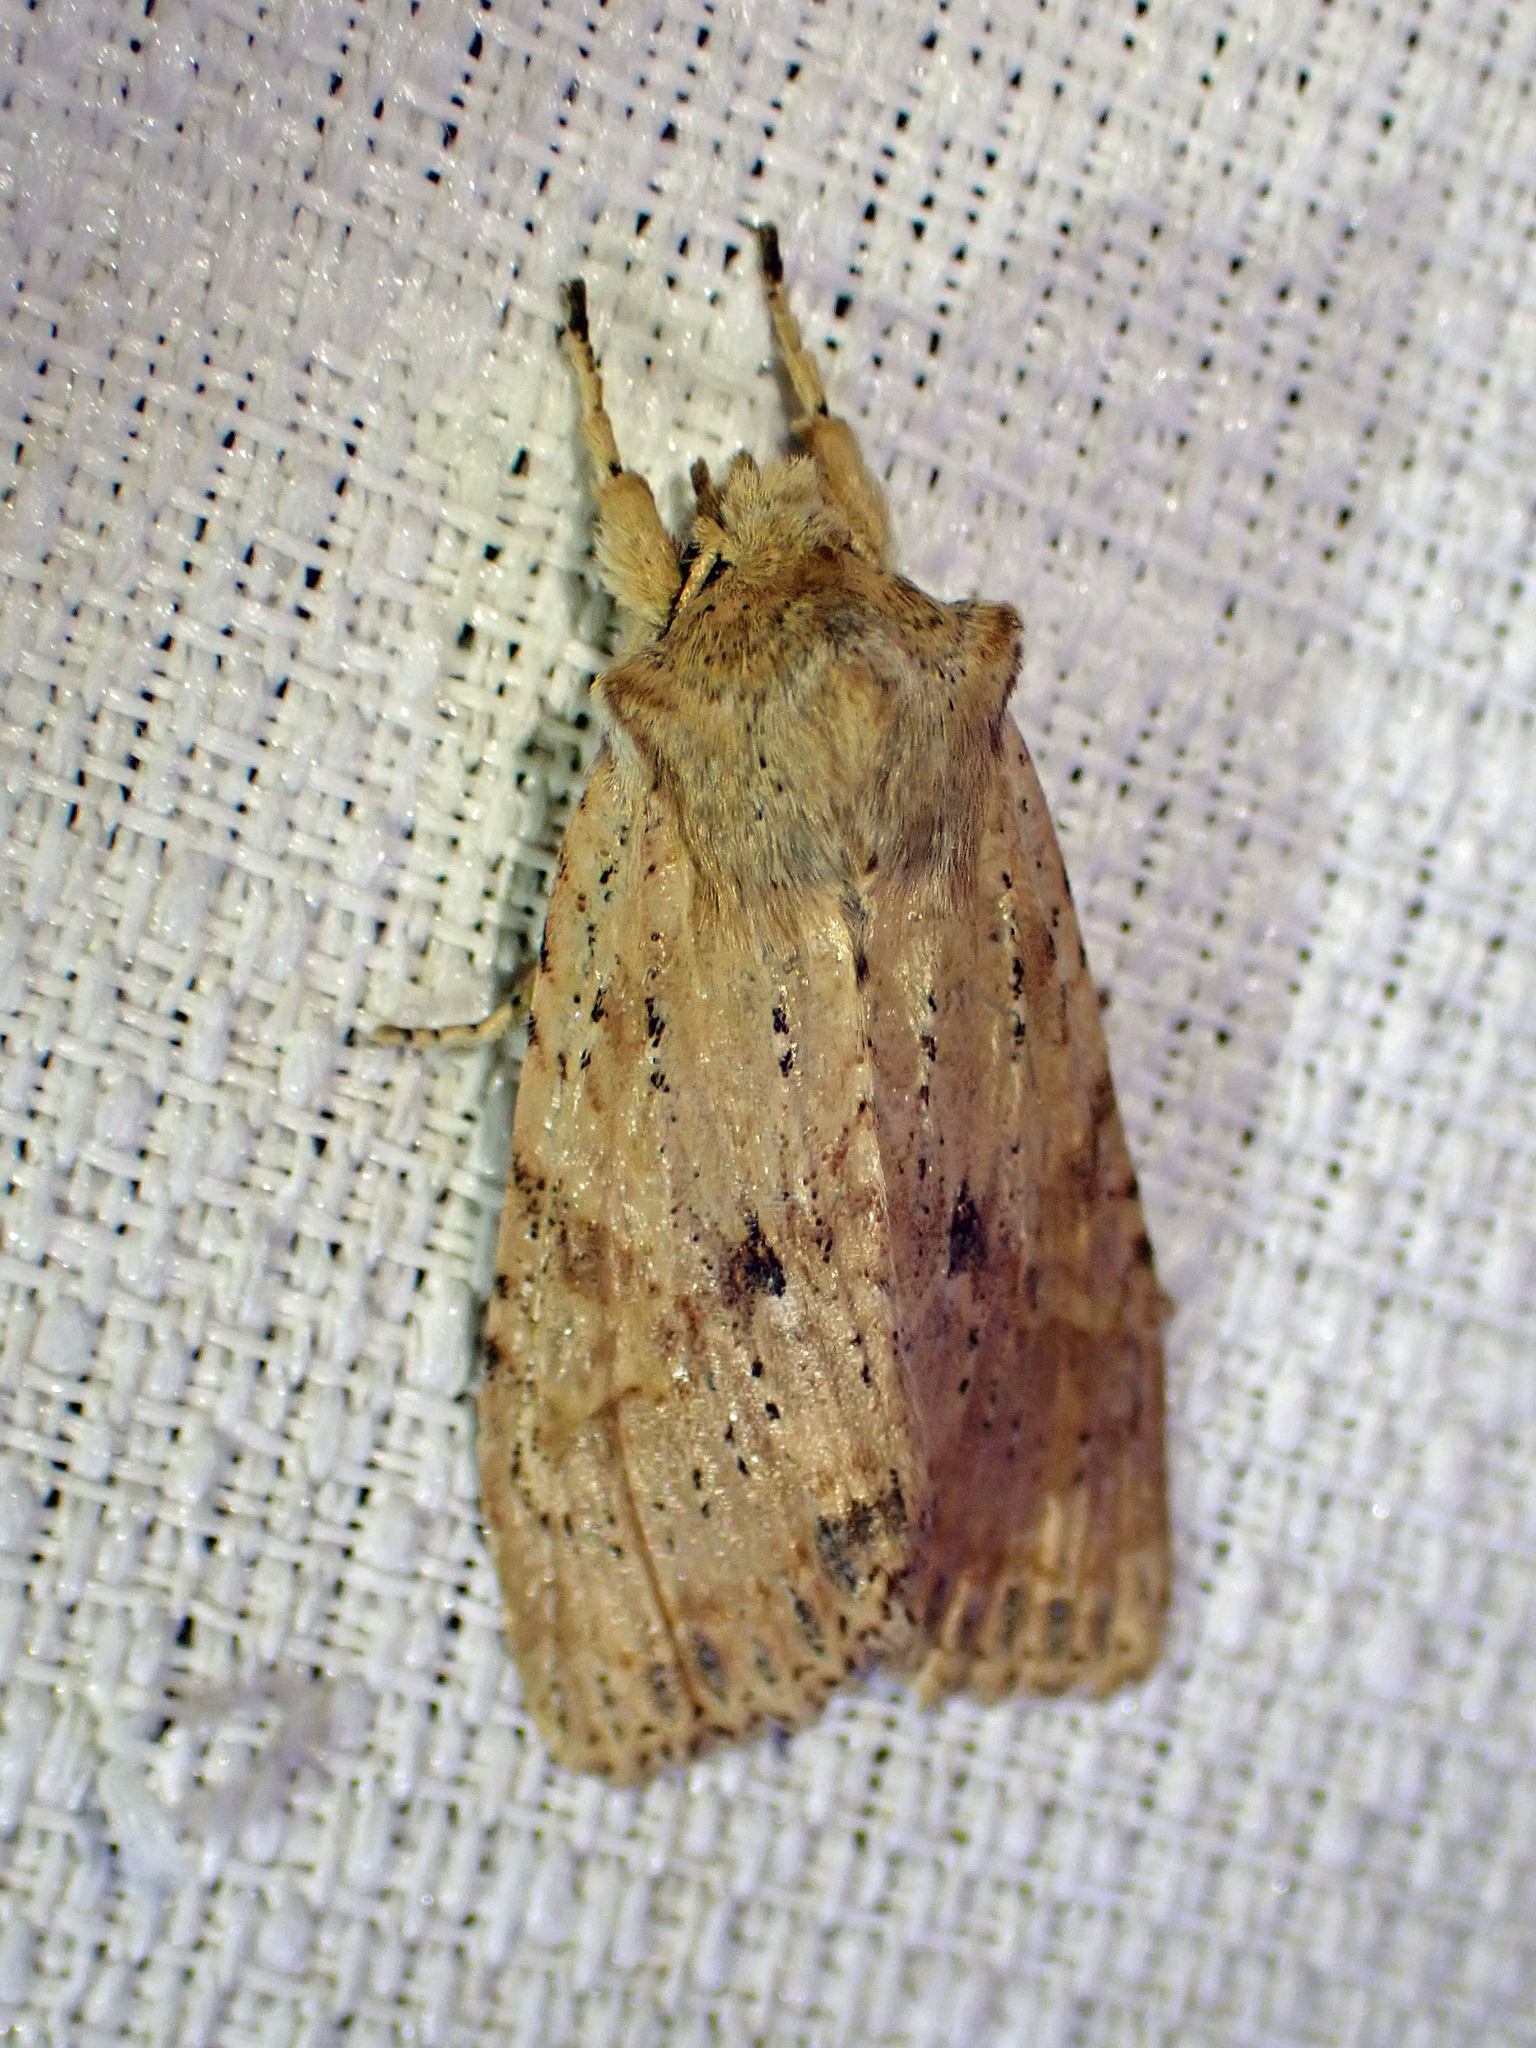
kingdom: Animalia
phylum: Arthropoda
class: Insecta
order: Lepidoptera
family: Noctuidae
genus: Lithophane
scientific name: Lithophane innominata
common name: Nameless pinion moth
